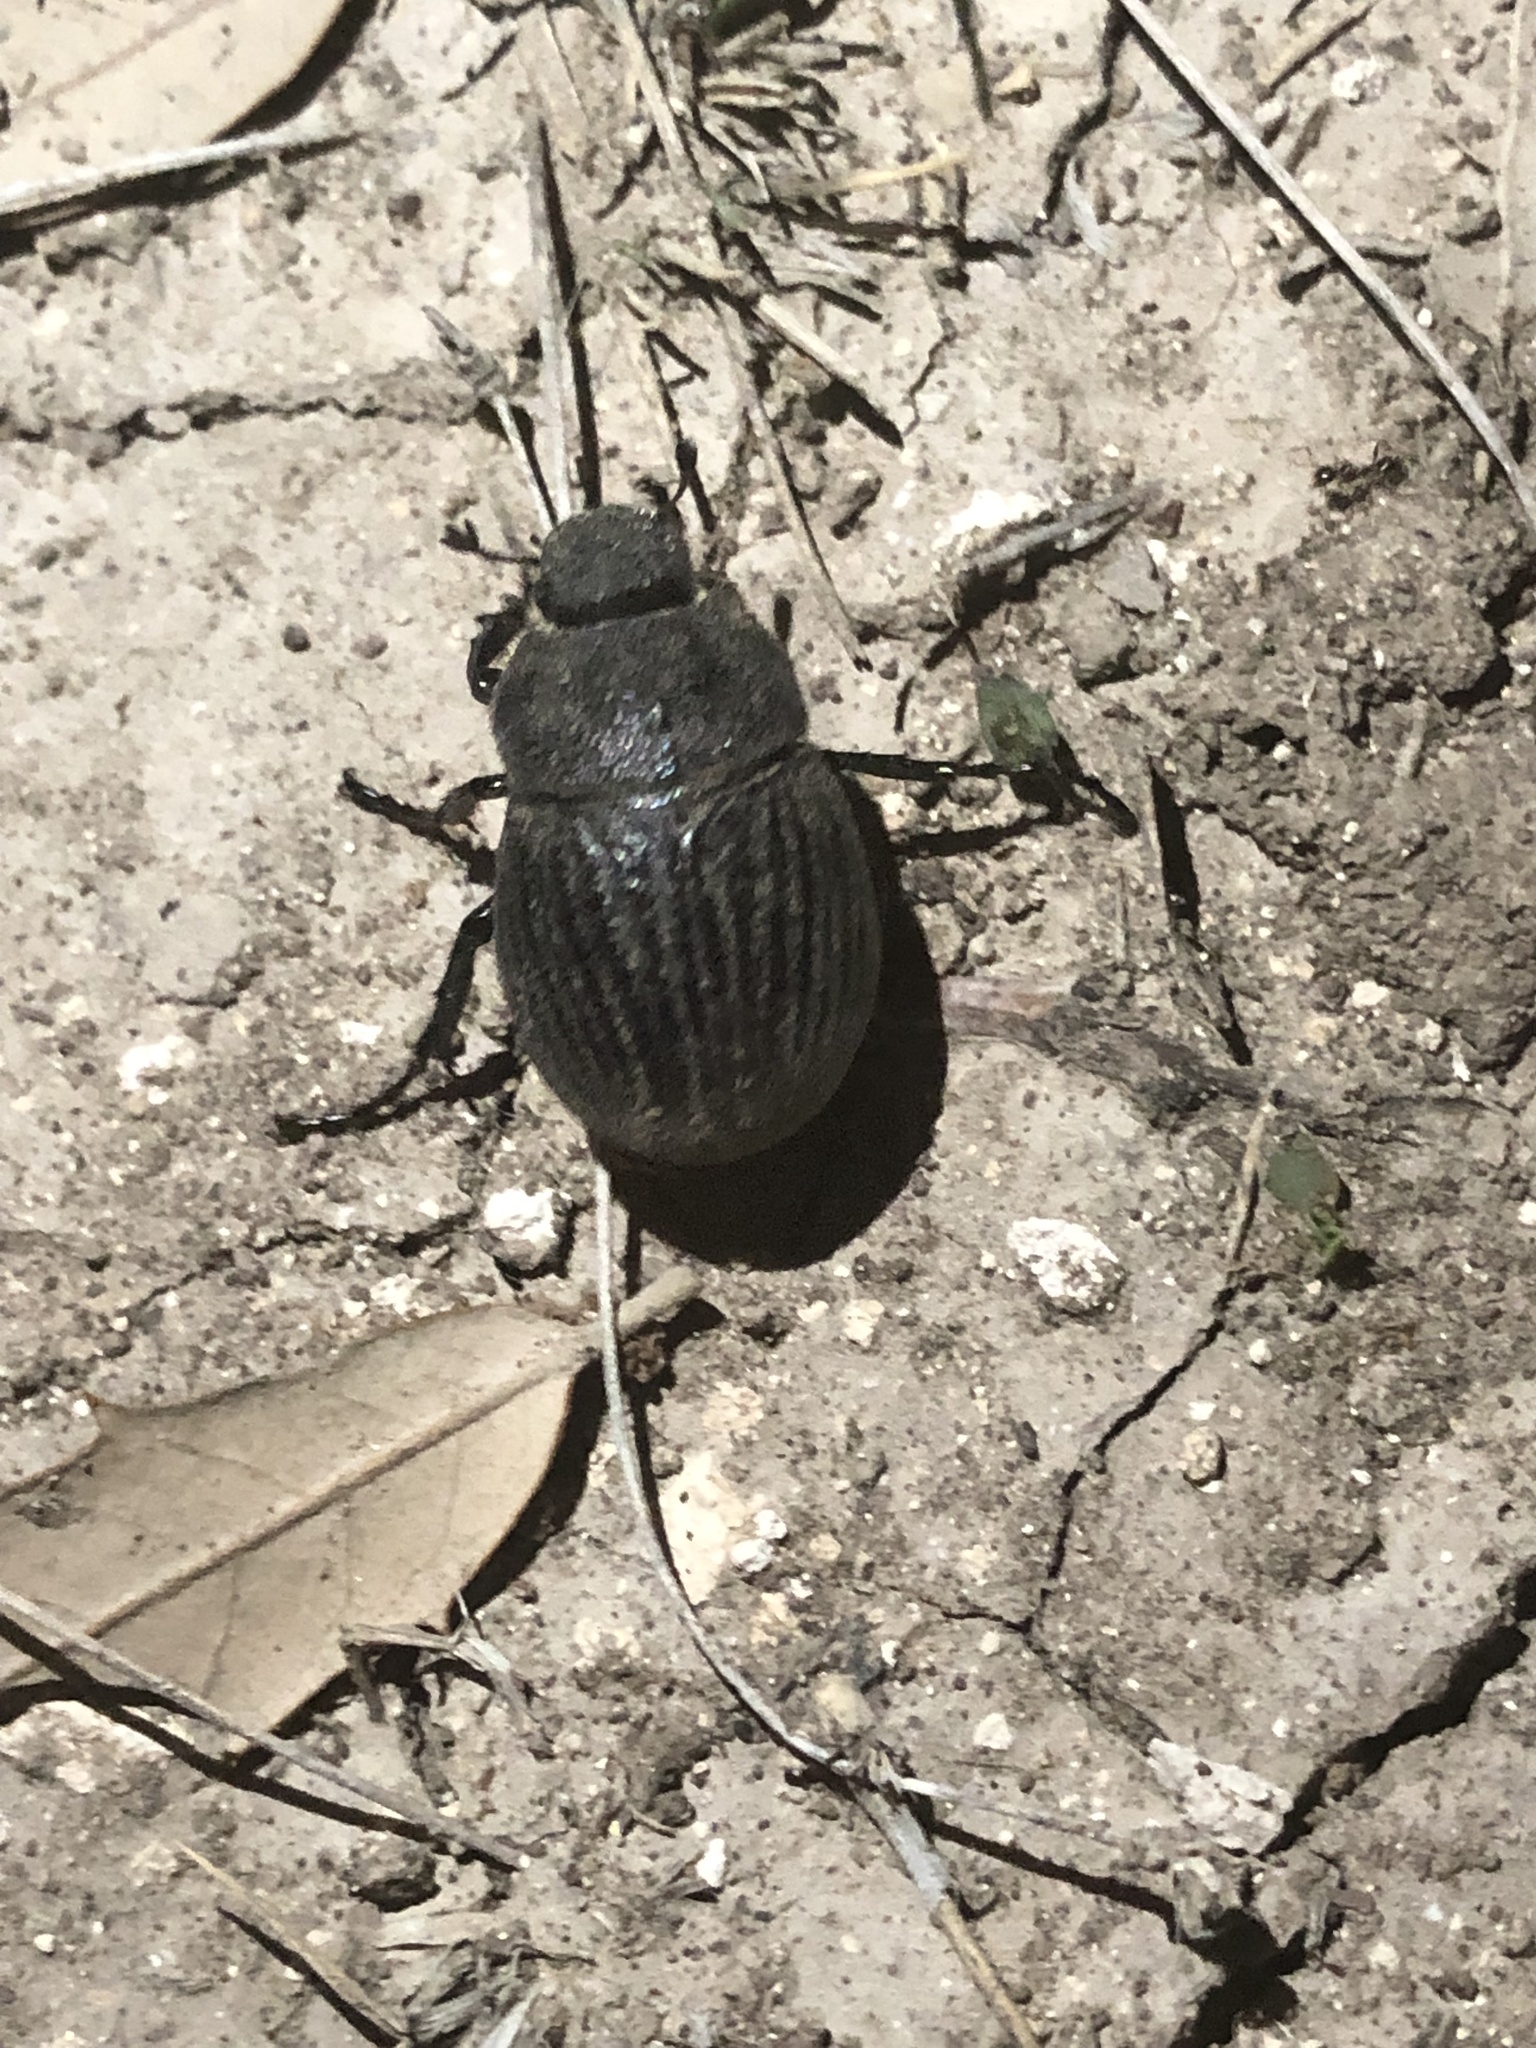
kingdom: Animalia
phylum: Arthropoda
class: Insecta
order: Coleoptera
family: Scarabaeidae
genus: Phyllophaga
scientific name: Phyllophaga cribrosa
